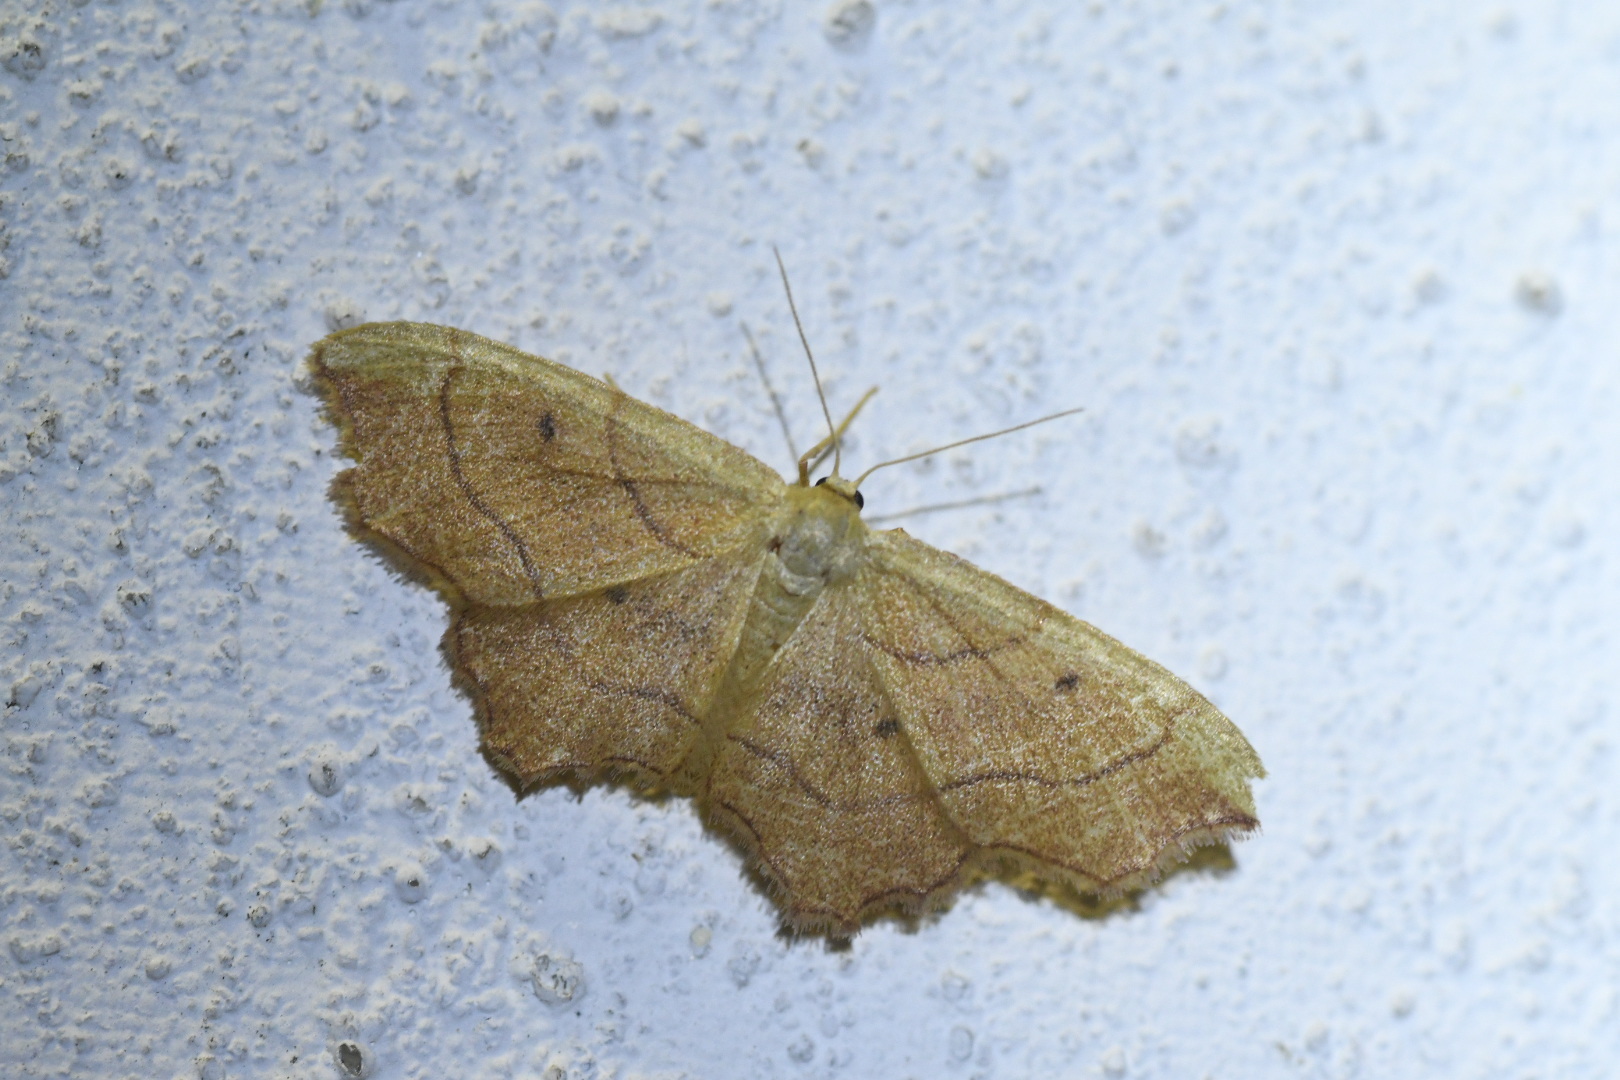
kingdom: Animalia
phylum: Arthropoda
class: Insecta
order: Lepidoptera
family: Geometridae
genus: Idaea
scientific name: Idaea emarginata
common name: Small scallop
